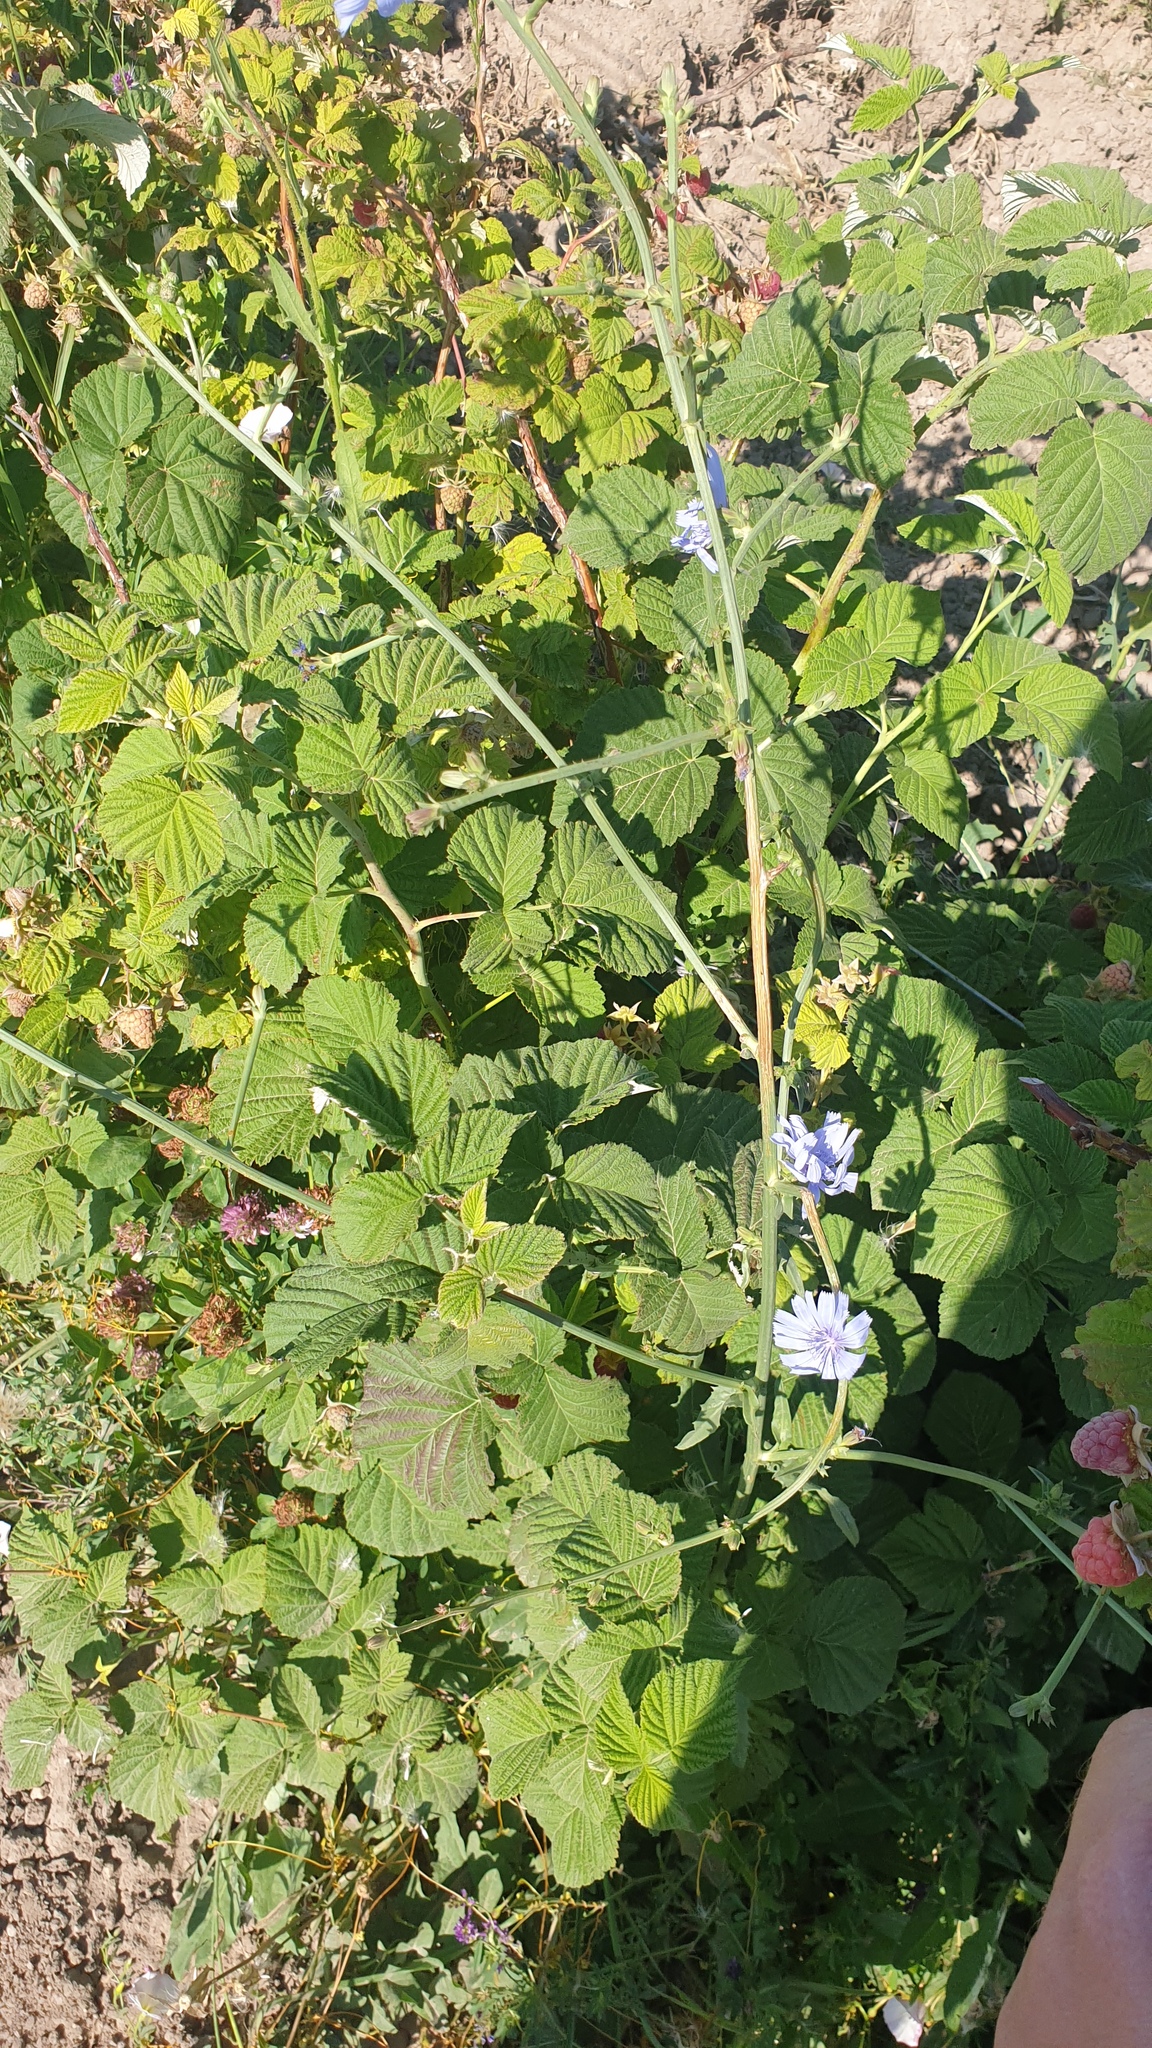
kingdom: Plantae
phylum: Tracheophyta
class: Magnoliopsida
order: Asterales
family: Asteraceae
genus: Cichorium
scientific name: Cichorium intybus
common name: Chicory
